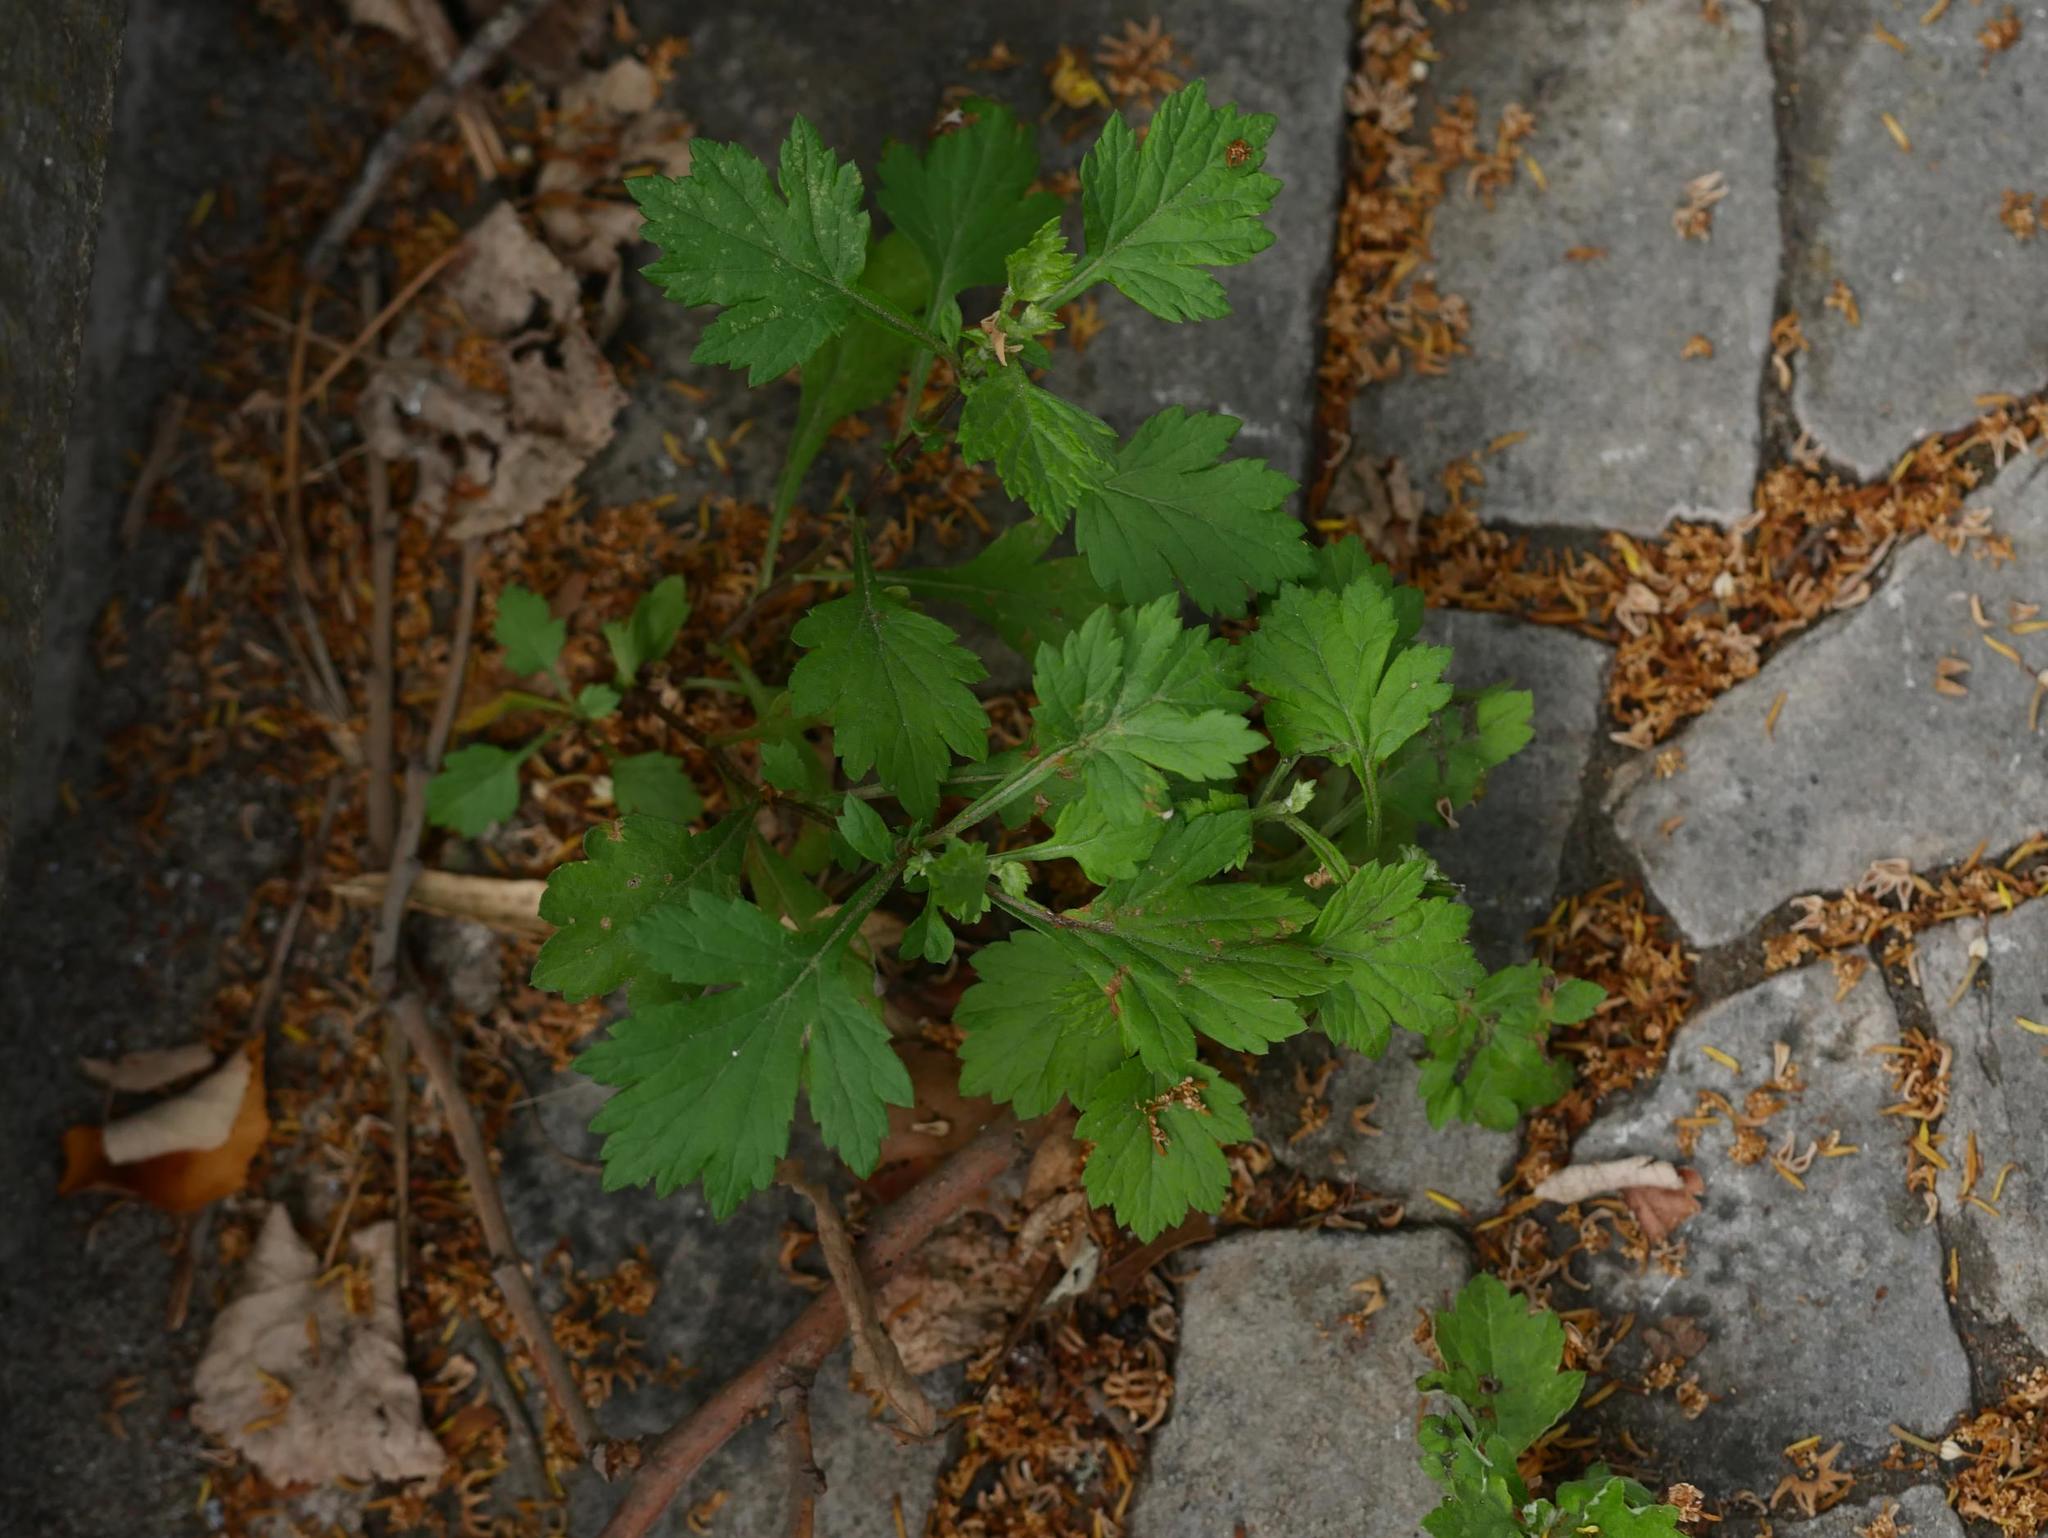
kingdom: Plantae
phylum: Tracheophyta
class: Magnoliopsida
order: Asterales
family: Asteraceae
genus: Artemisia
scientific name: Artemisia vulgaris
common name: Mugwort
